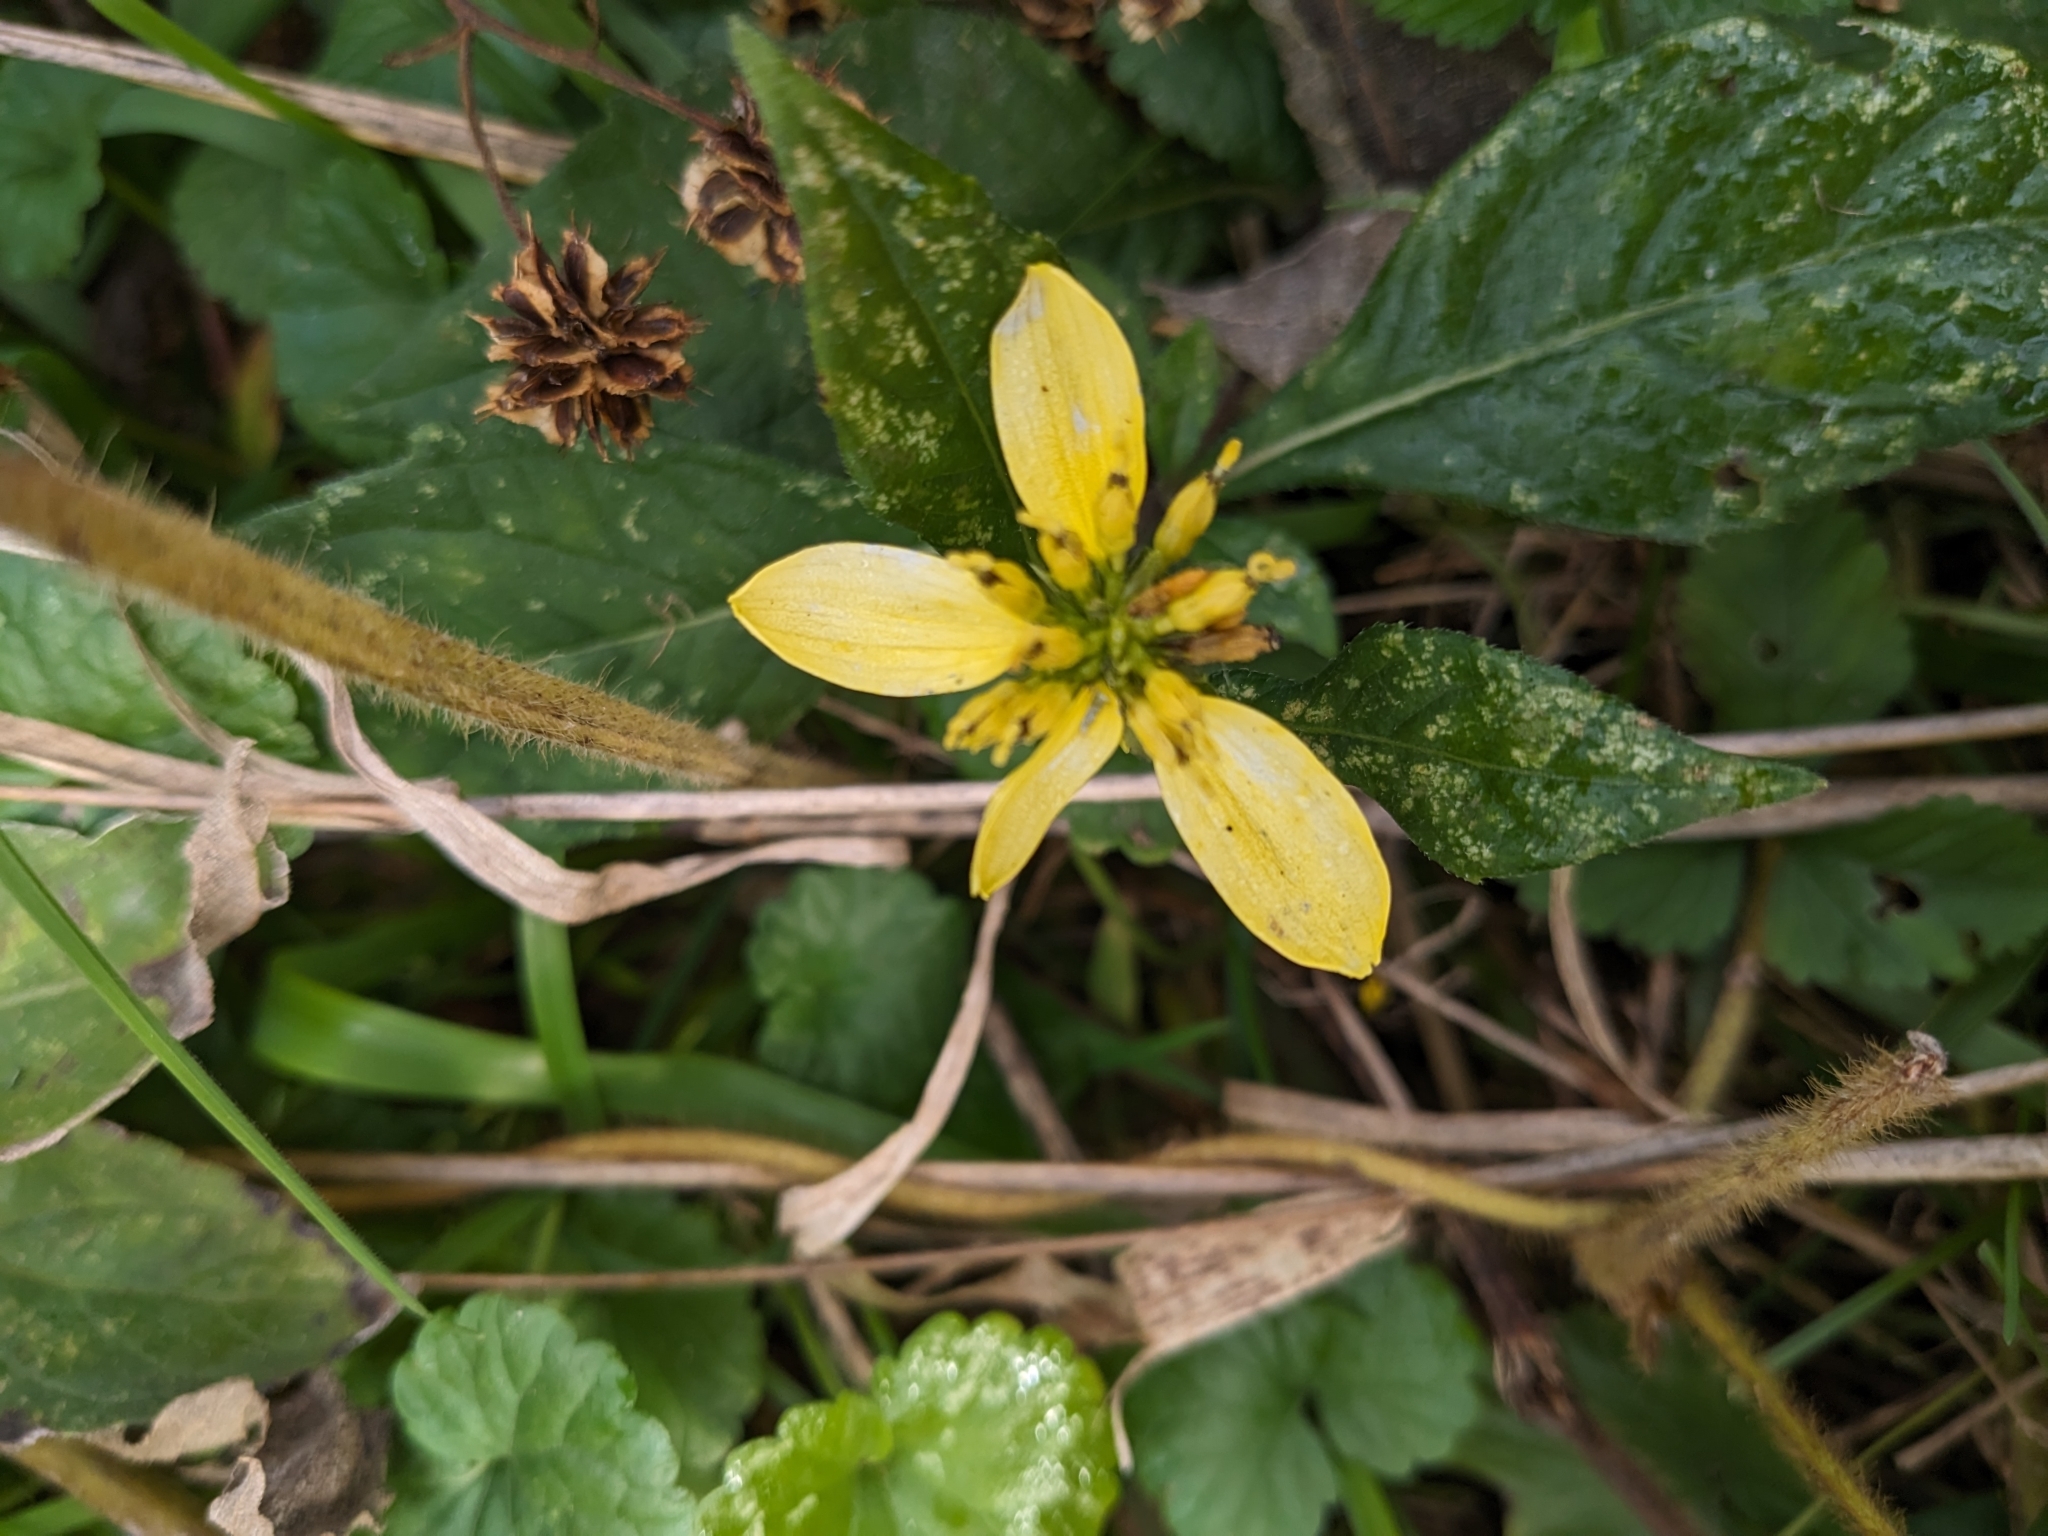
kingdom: Plantae
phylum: Tracheophyta
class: Magnoliopsida
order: Asterales
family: Asteraceae
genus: Verbesina
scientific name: Verbesina alternifolia
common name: Wingstem
